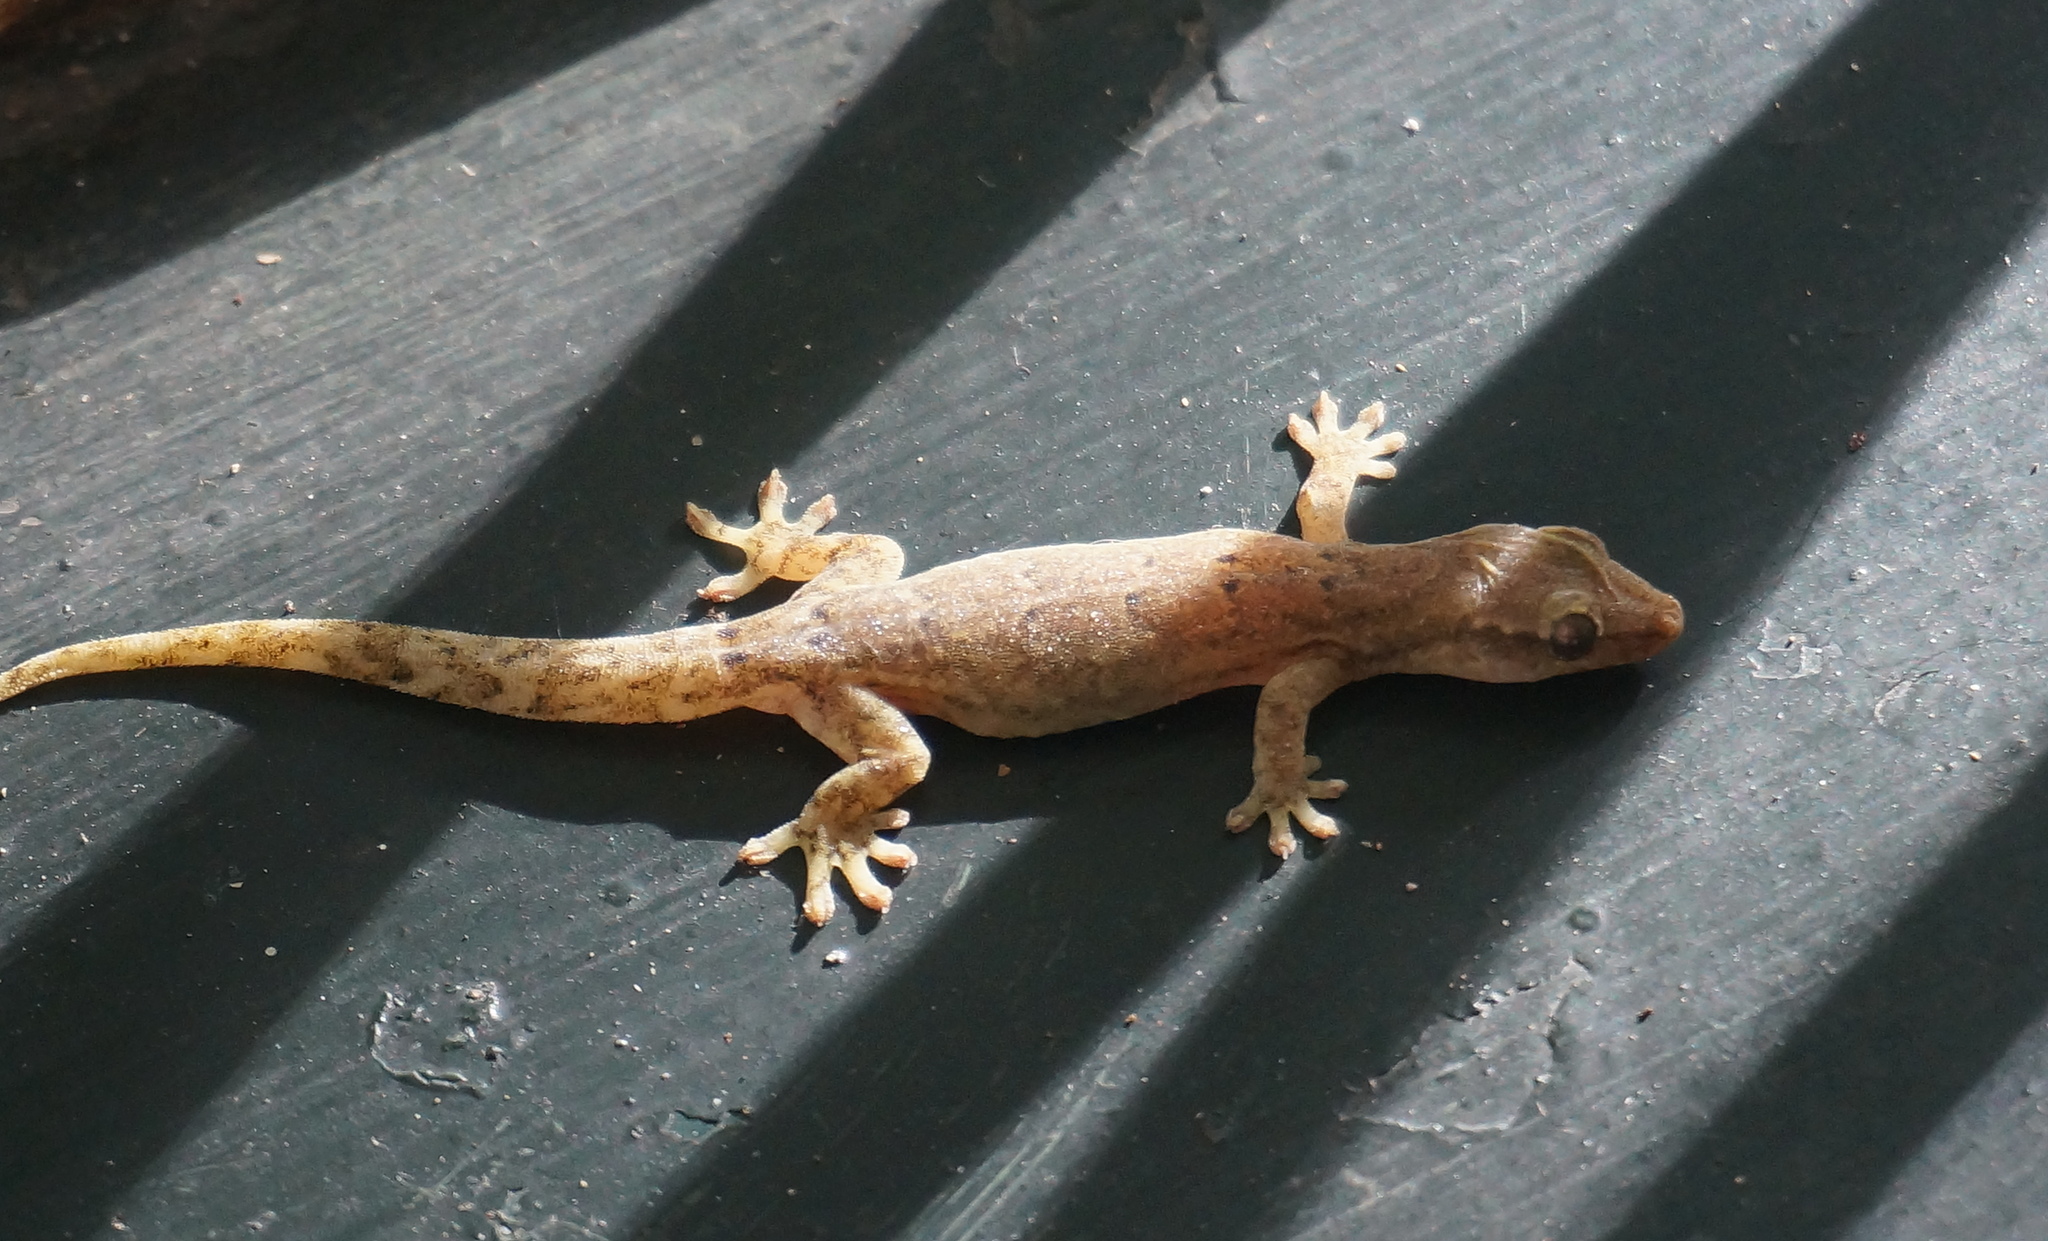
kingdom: Animalia
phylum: Chordata
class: Squamata
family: Gekkonidae
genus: Lepidodactylus
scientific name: Lepidodactylus lugubris
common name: Mourning gecko
